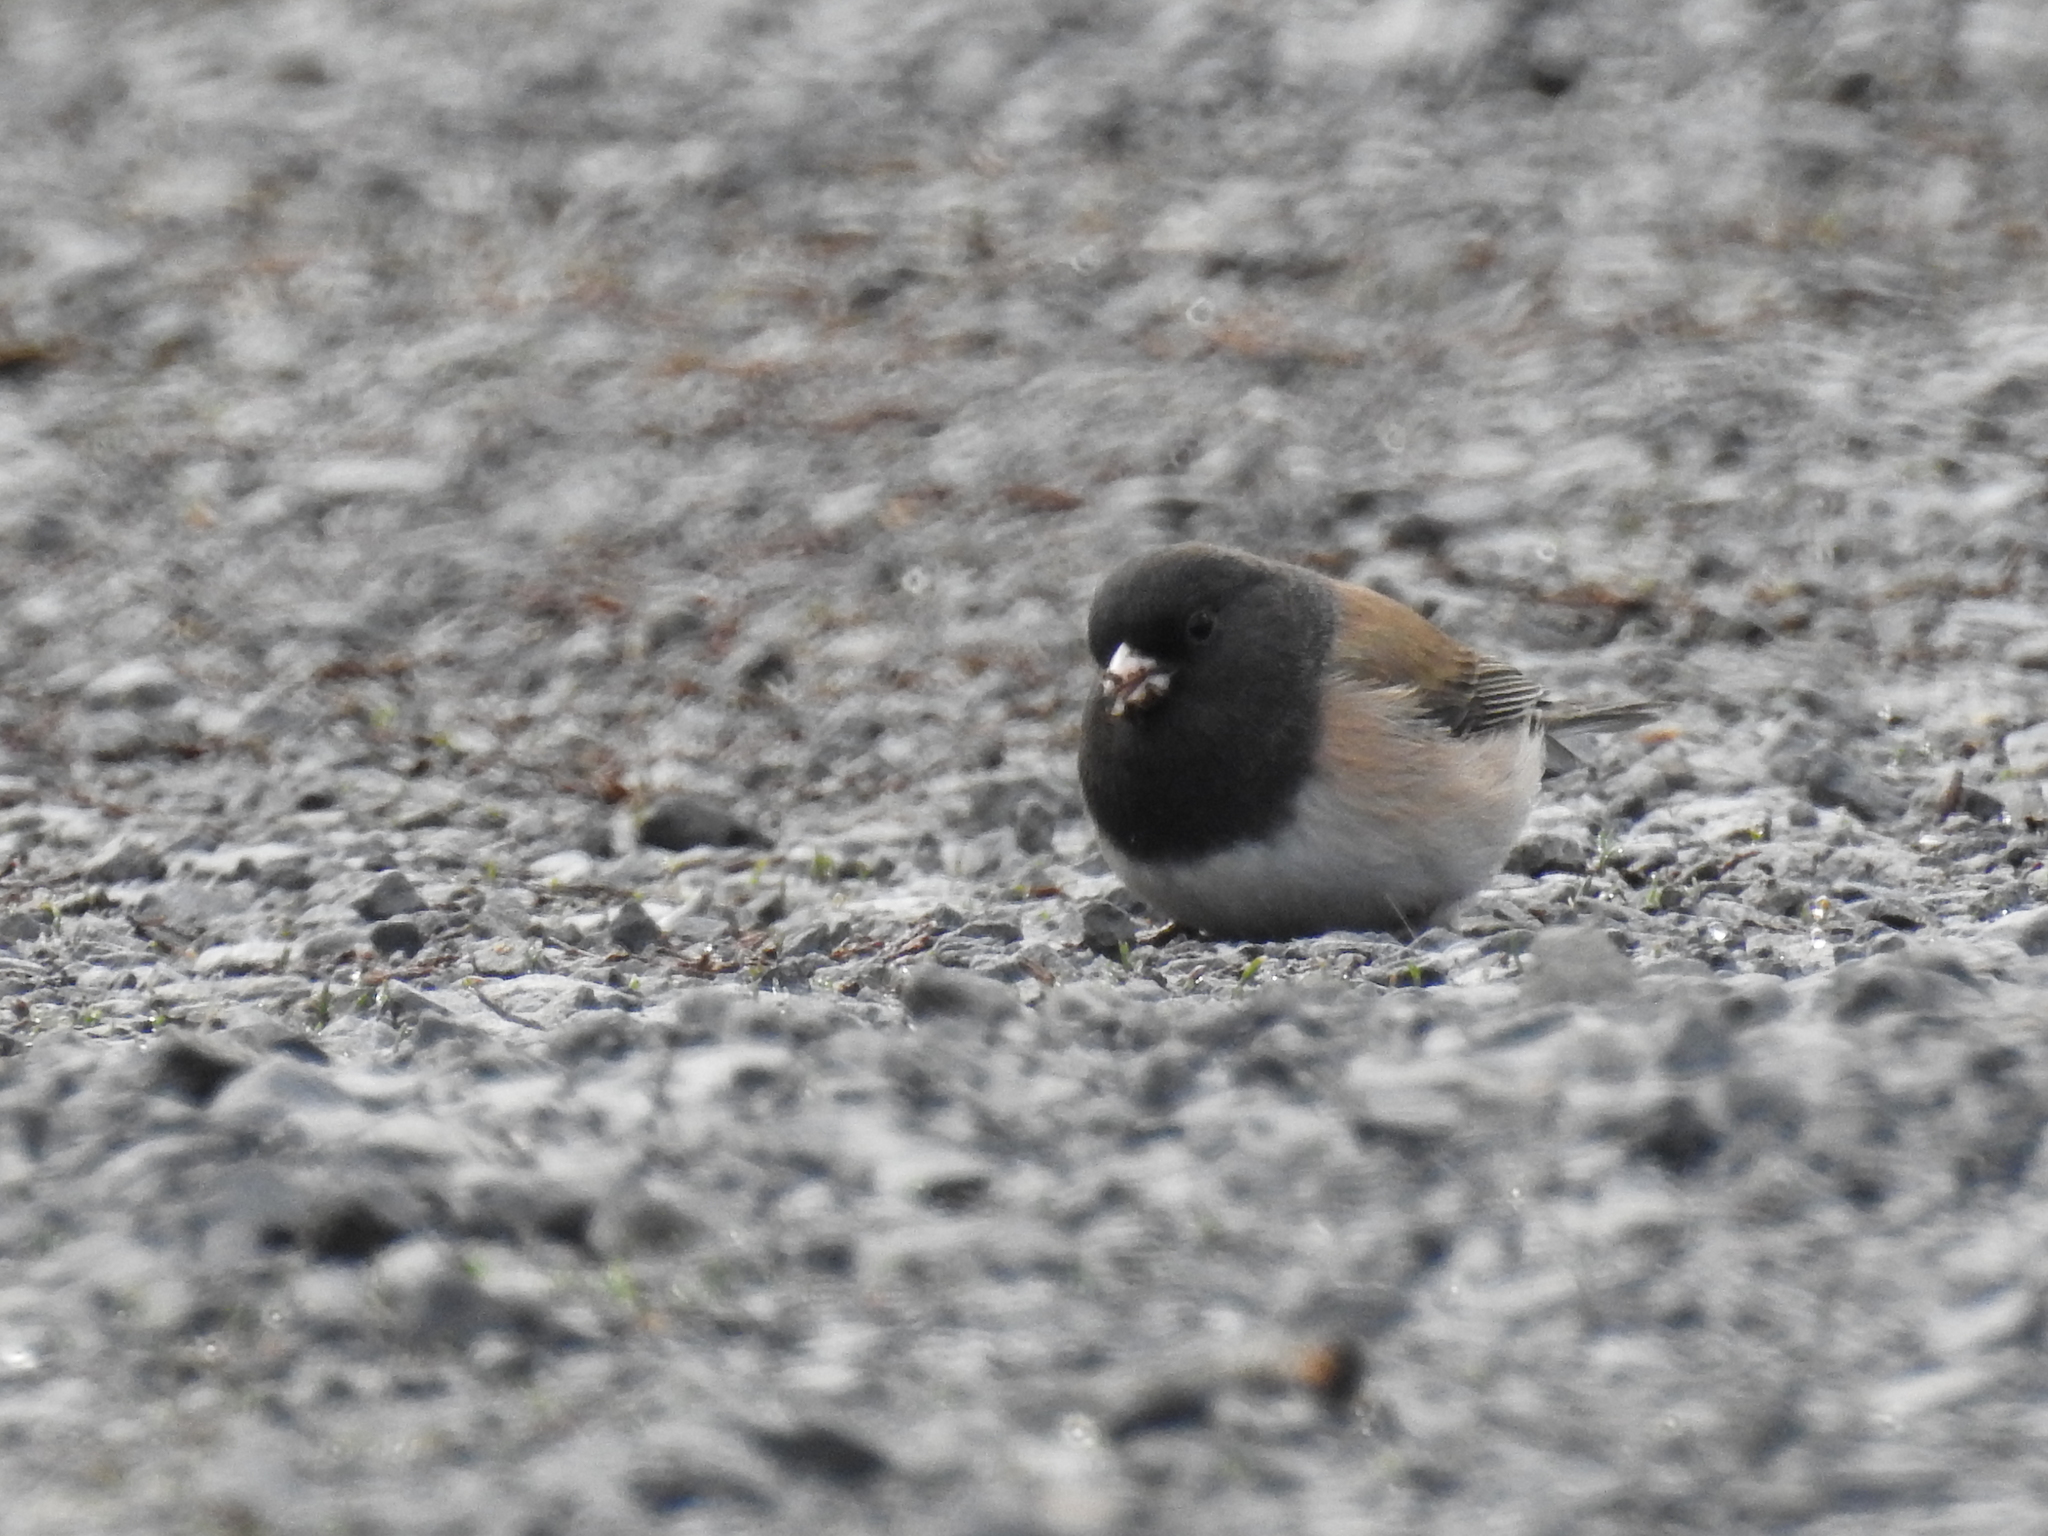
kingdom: Animalia
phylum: Chordata
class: Aves
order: Passeriformes
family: Passerellidae
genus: Junco
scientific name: Junco hyemalis
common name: Dark-eyed junco
